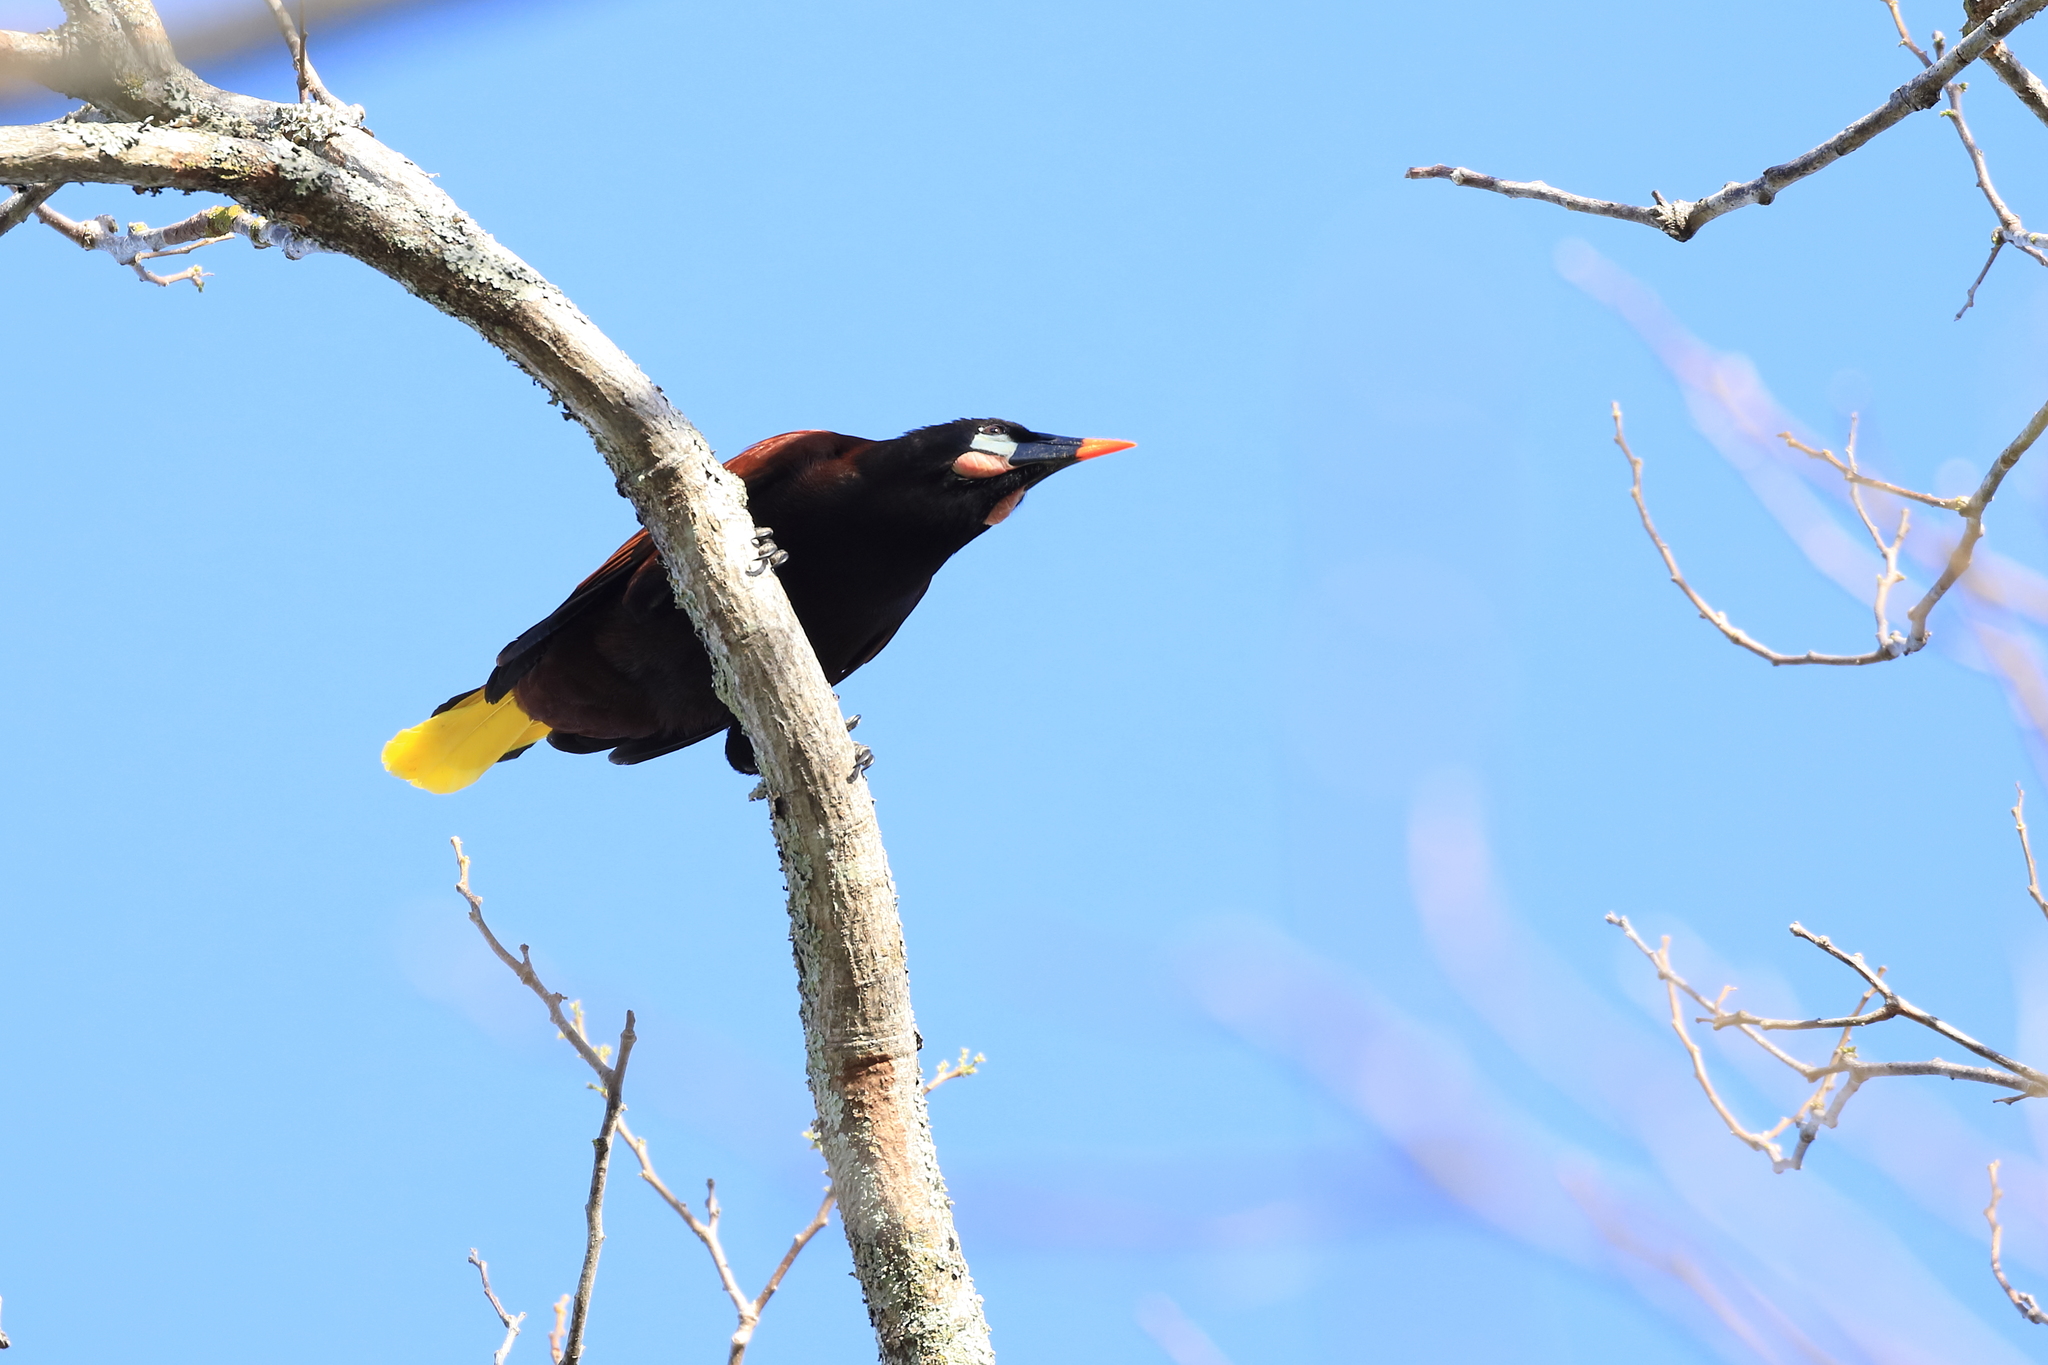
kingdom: Animalia
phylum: Chordata
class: Aves
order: Passeriformes
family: Icteridae
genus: Psarocolius
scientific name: Psarocolius montezuma
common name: Montezuma oropendola
